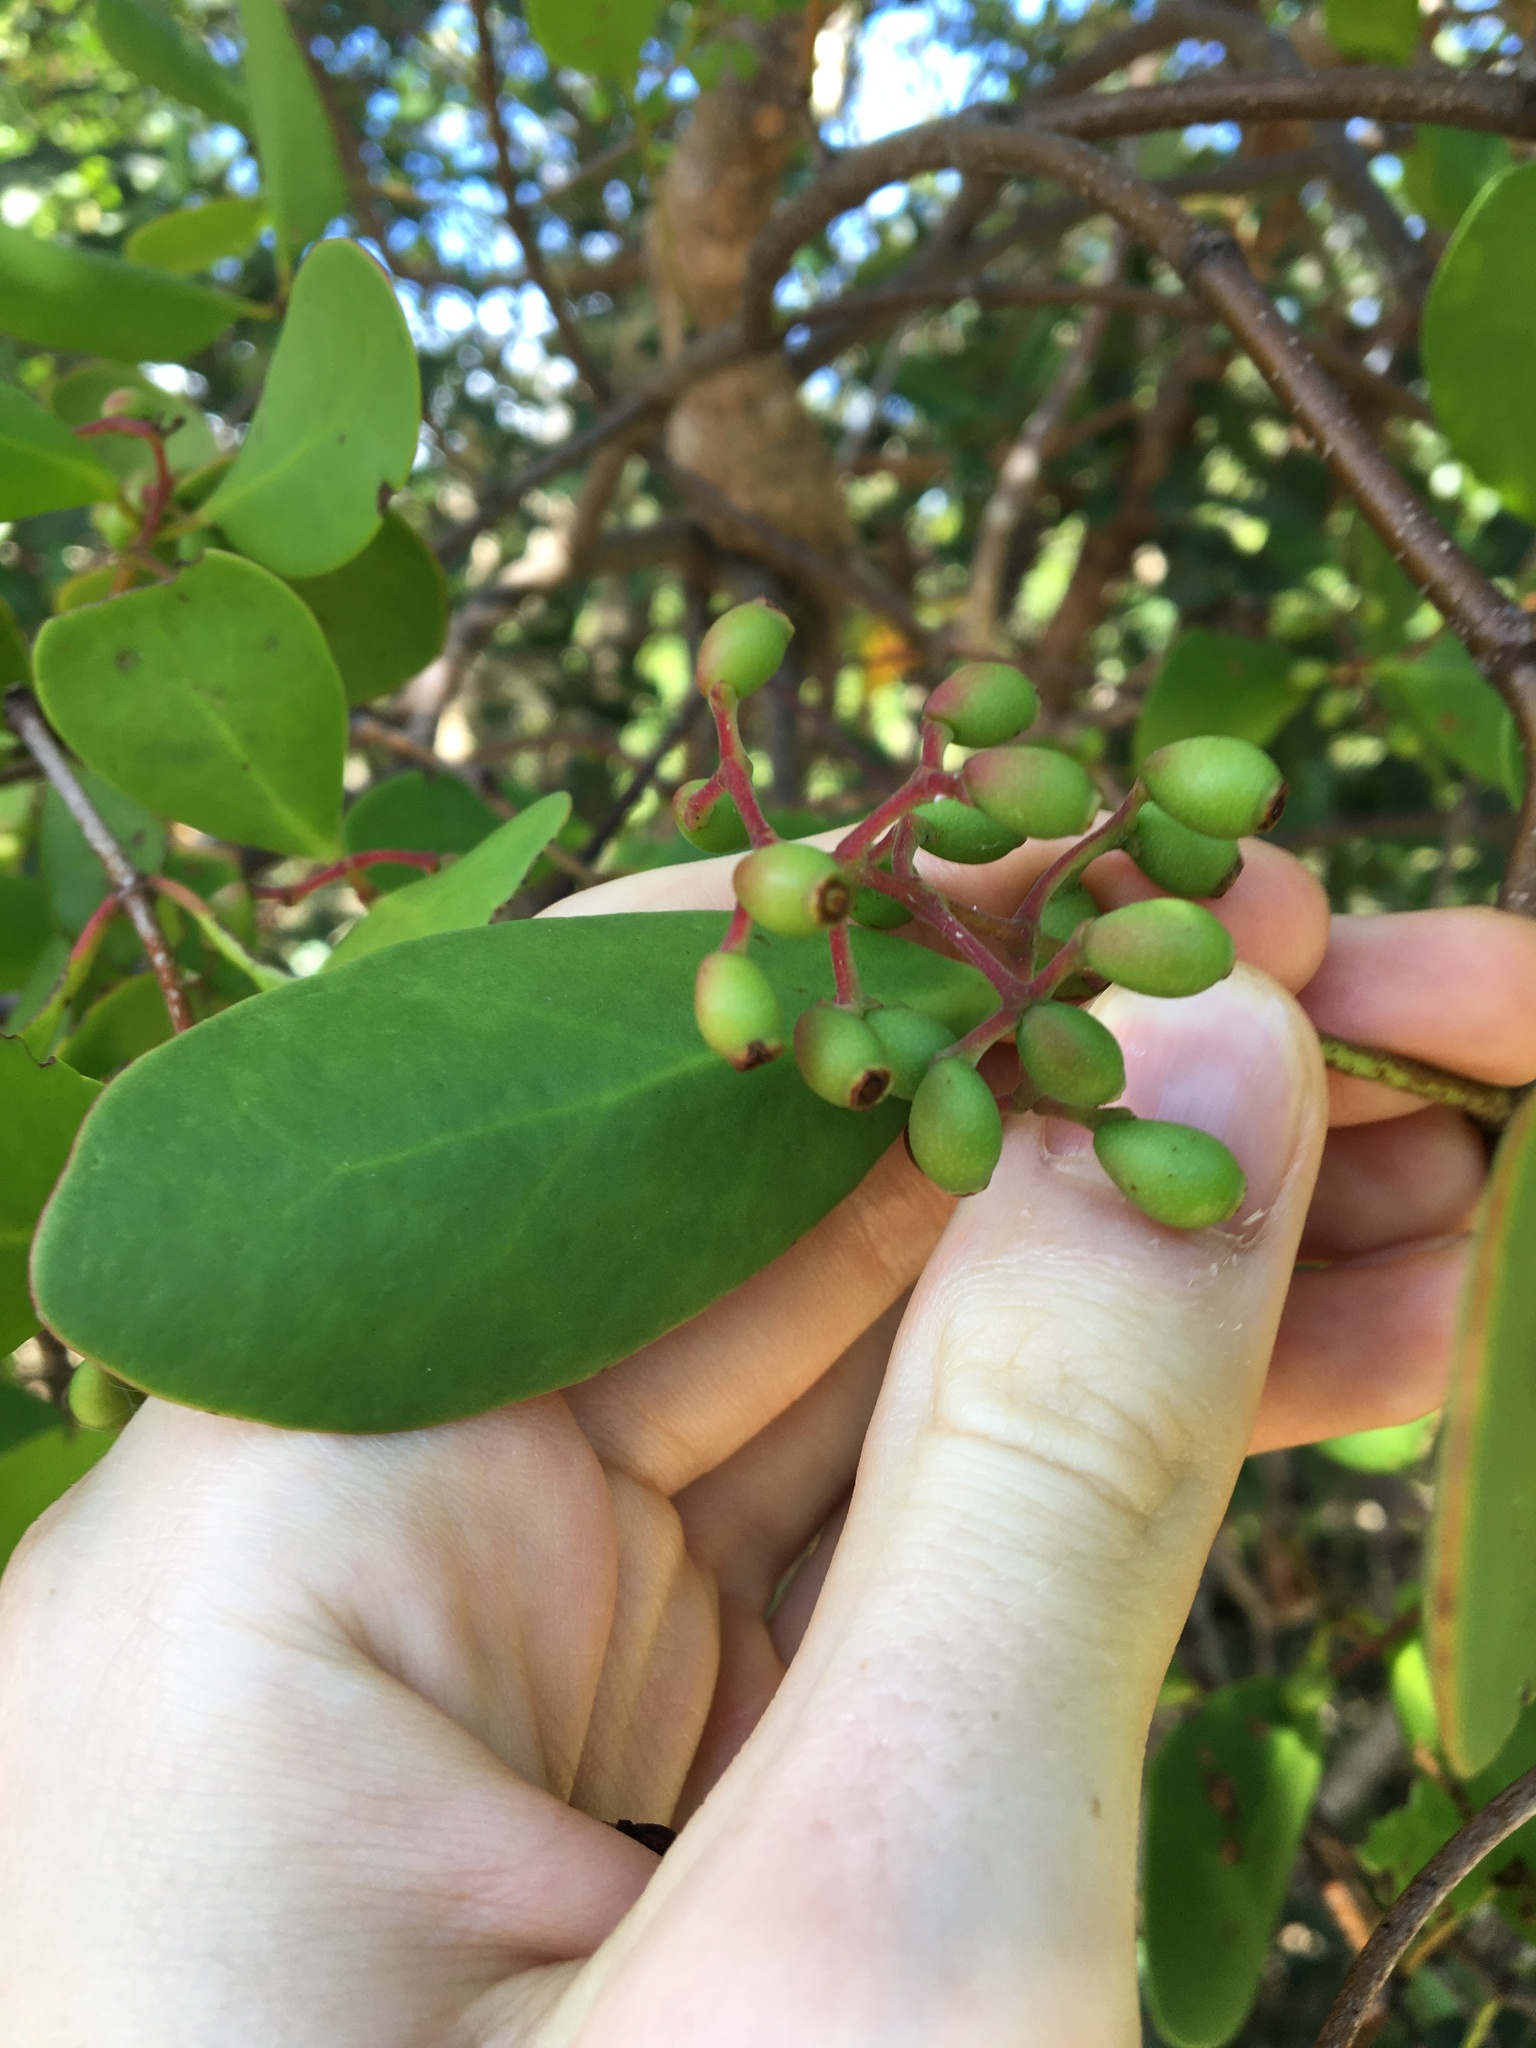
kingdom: Plantae
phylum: Tracheophyta
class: Magnoliopsida
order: Santalales
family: Loranthaceae
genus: Muellerina
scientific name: Muellerina celastroides
